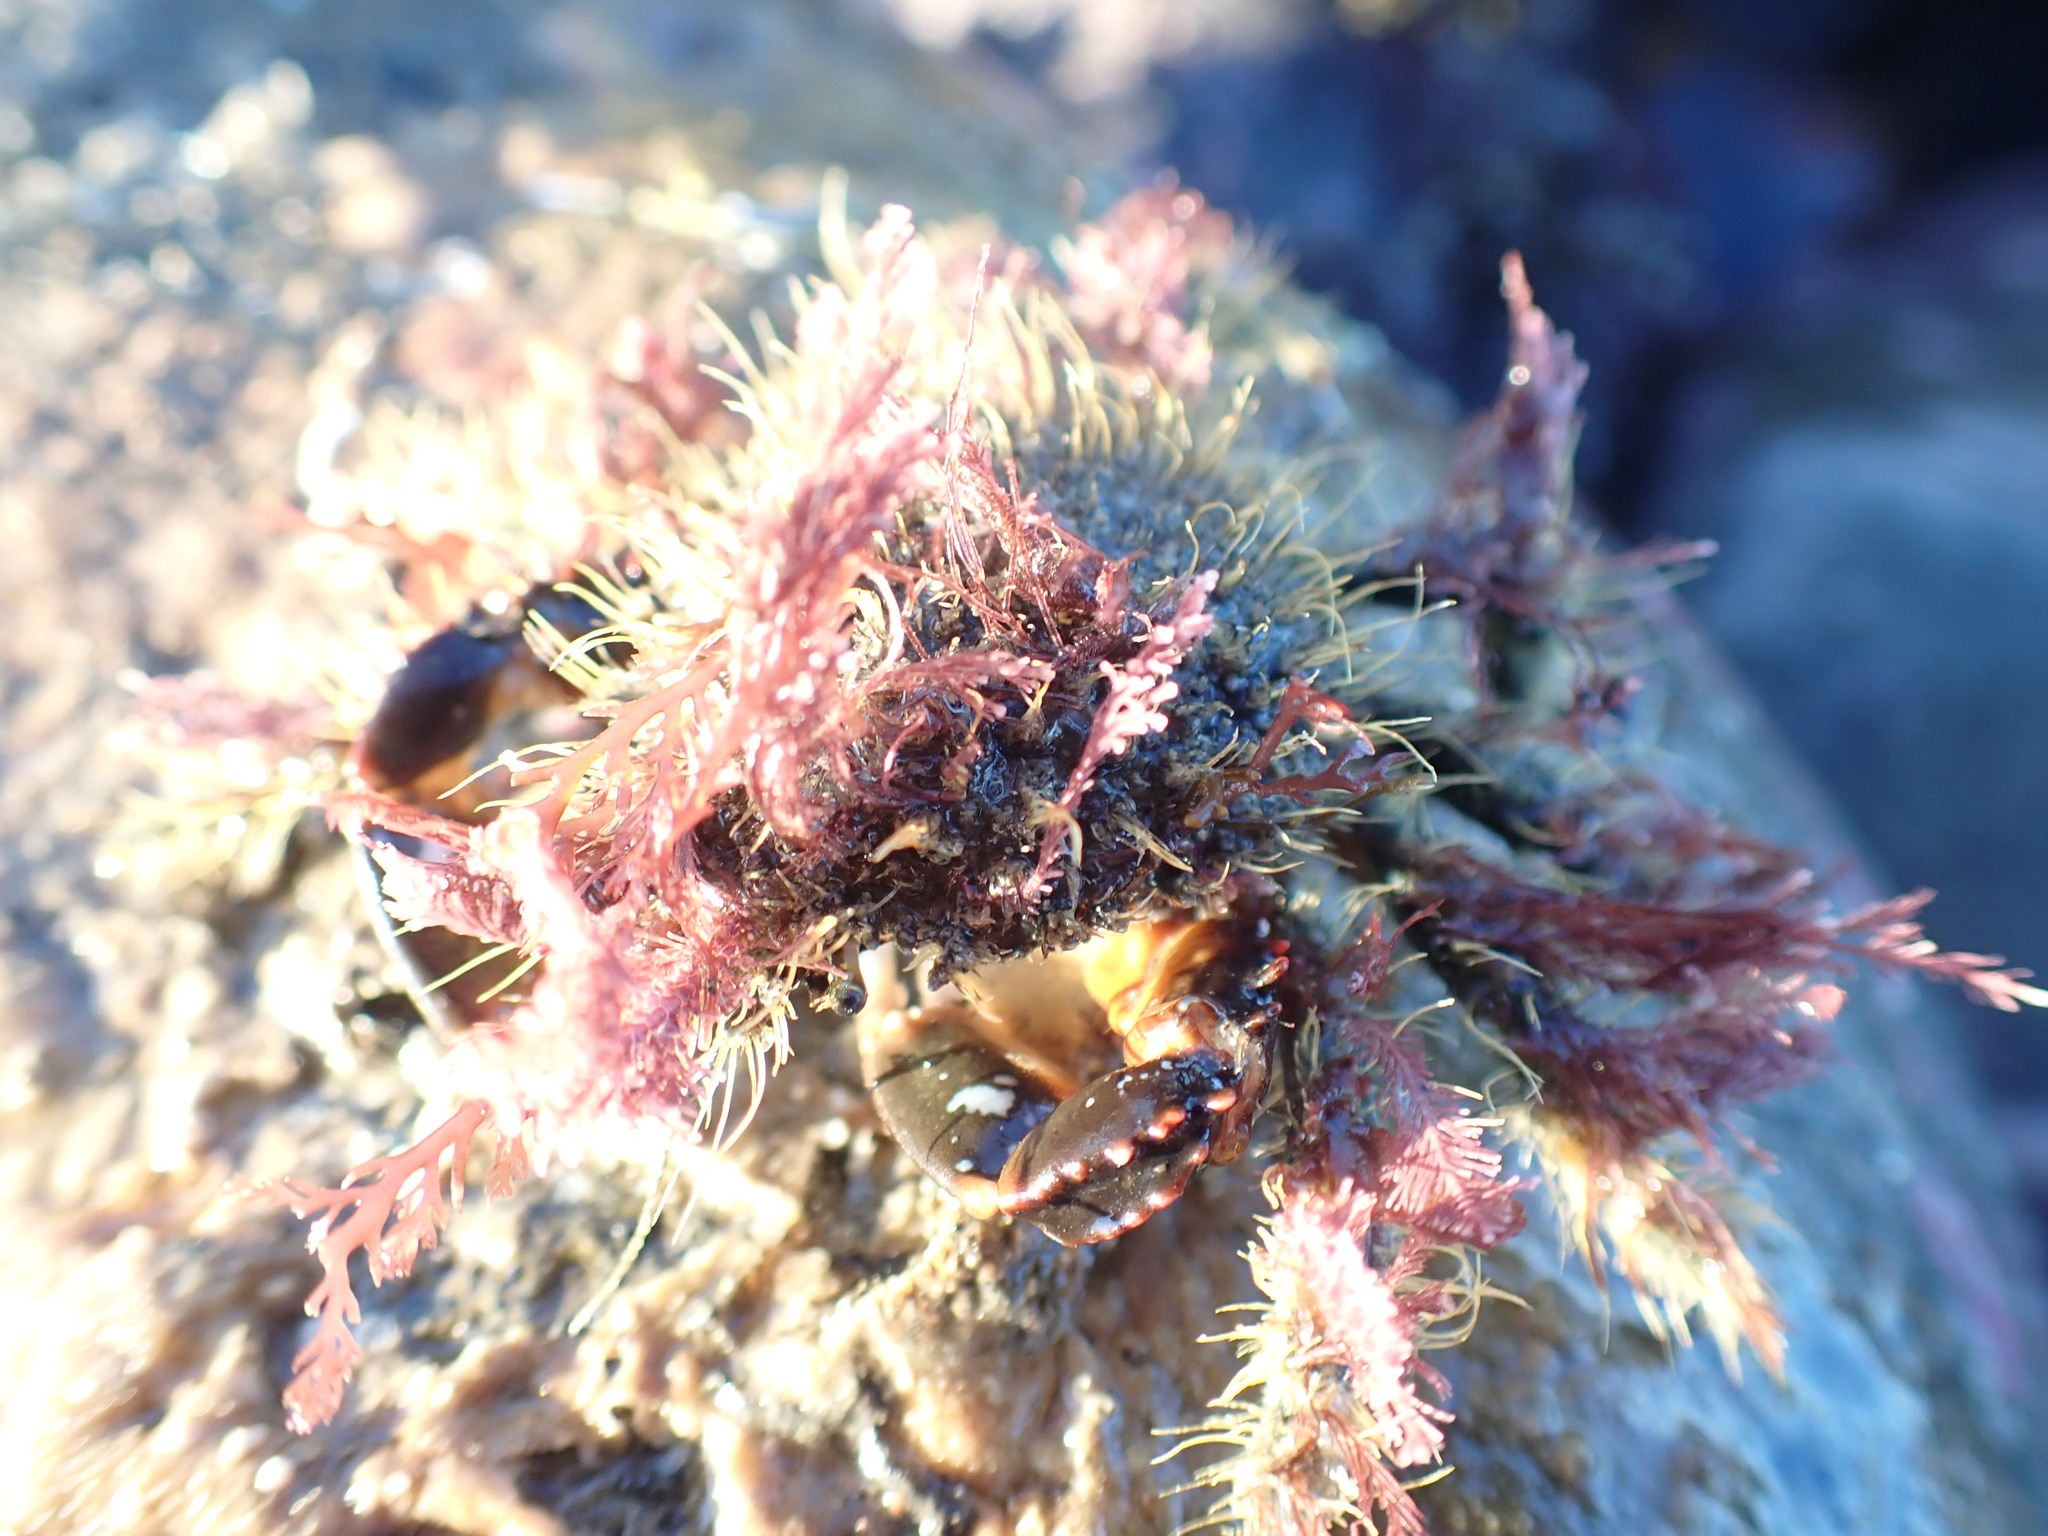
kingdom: Animalia
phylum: Arthropoda
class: Malacostraca
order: Decapoda
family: Majidae
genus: Notomithrax
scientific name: Notomithrax ursus
